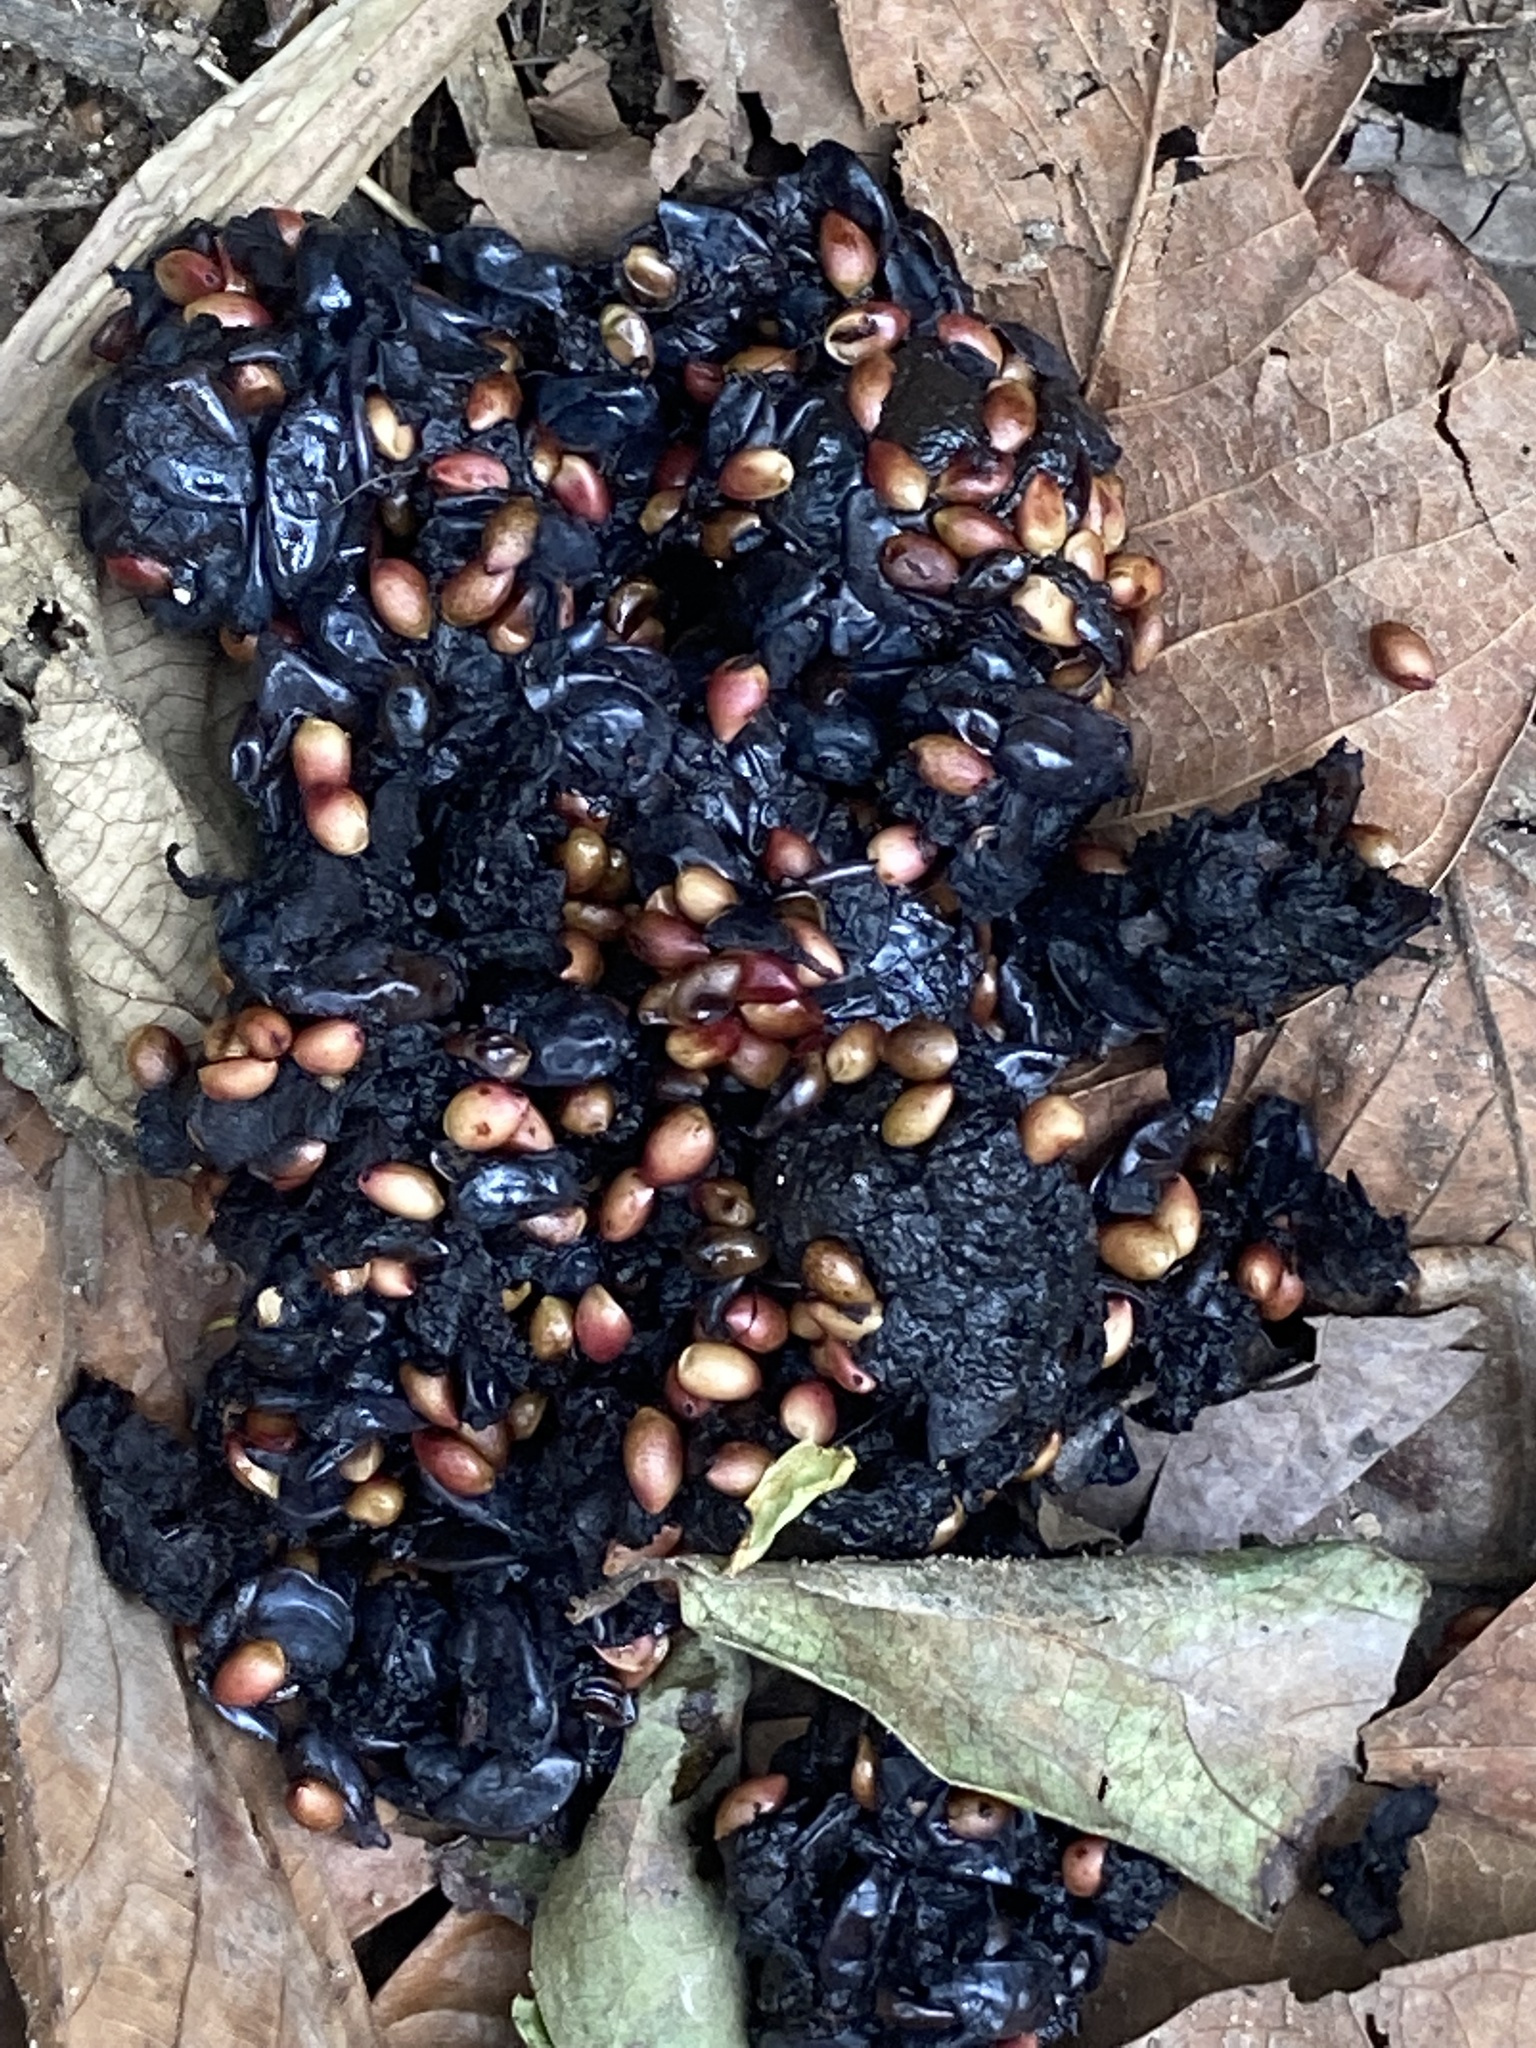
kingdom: Animalia
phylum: Chordata
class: Mammalia
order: Carnivora
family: Ursidae
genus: Ursus
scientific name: Ursus thibetanus
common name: Asiatic black bear
